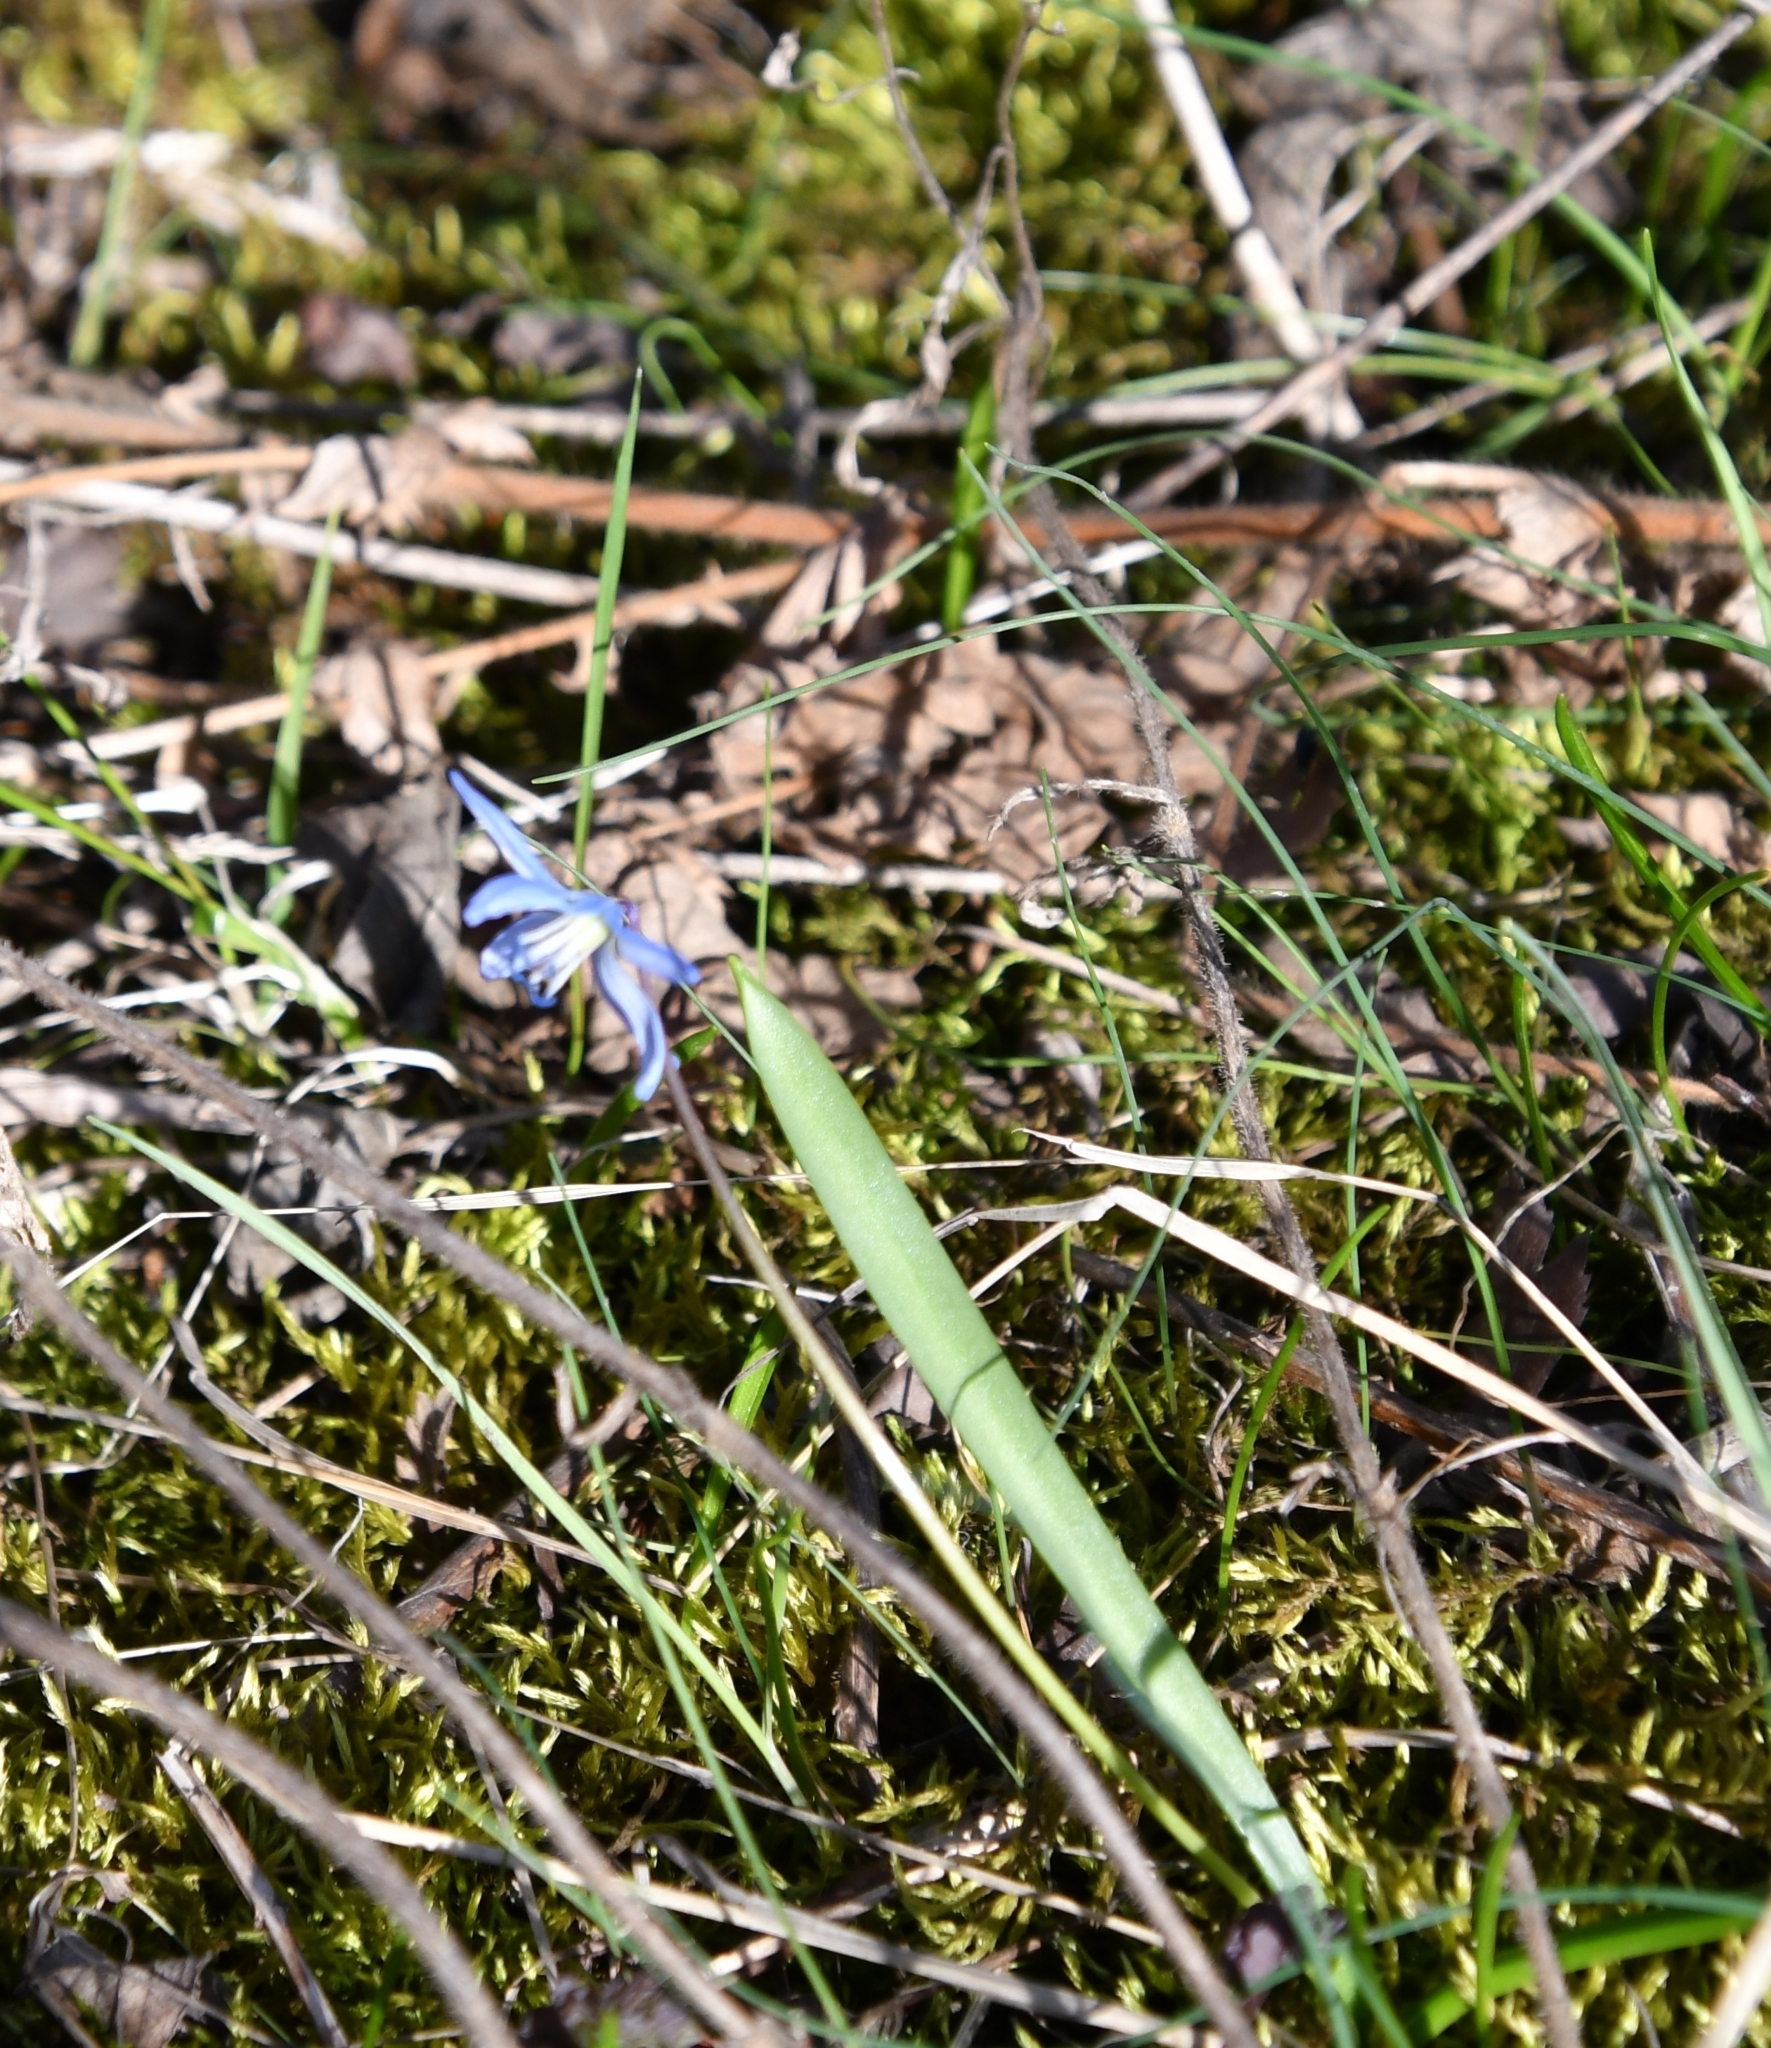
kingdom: Plantae
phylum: Tracheophyta
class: Liliopsida
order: Asparagales
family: Asparagaceae
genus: Scilla
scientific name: Scilla siberica
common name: Siberian squill
